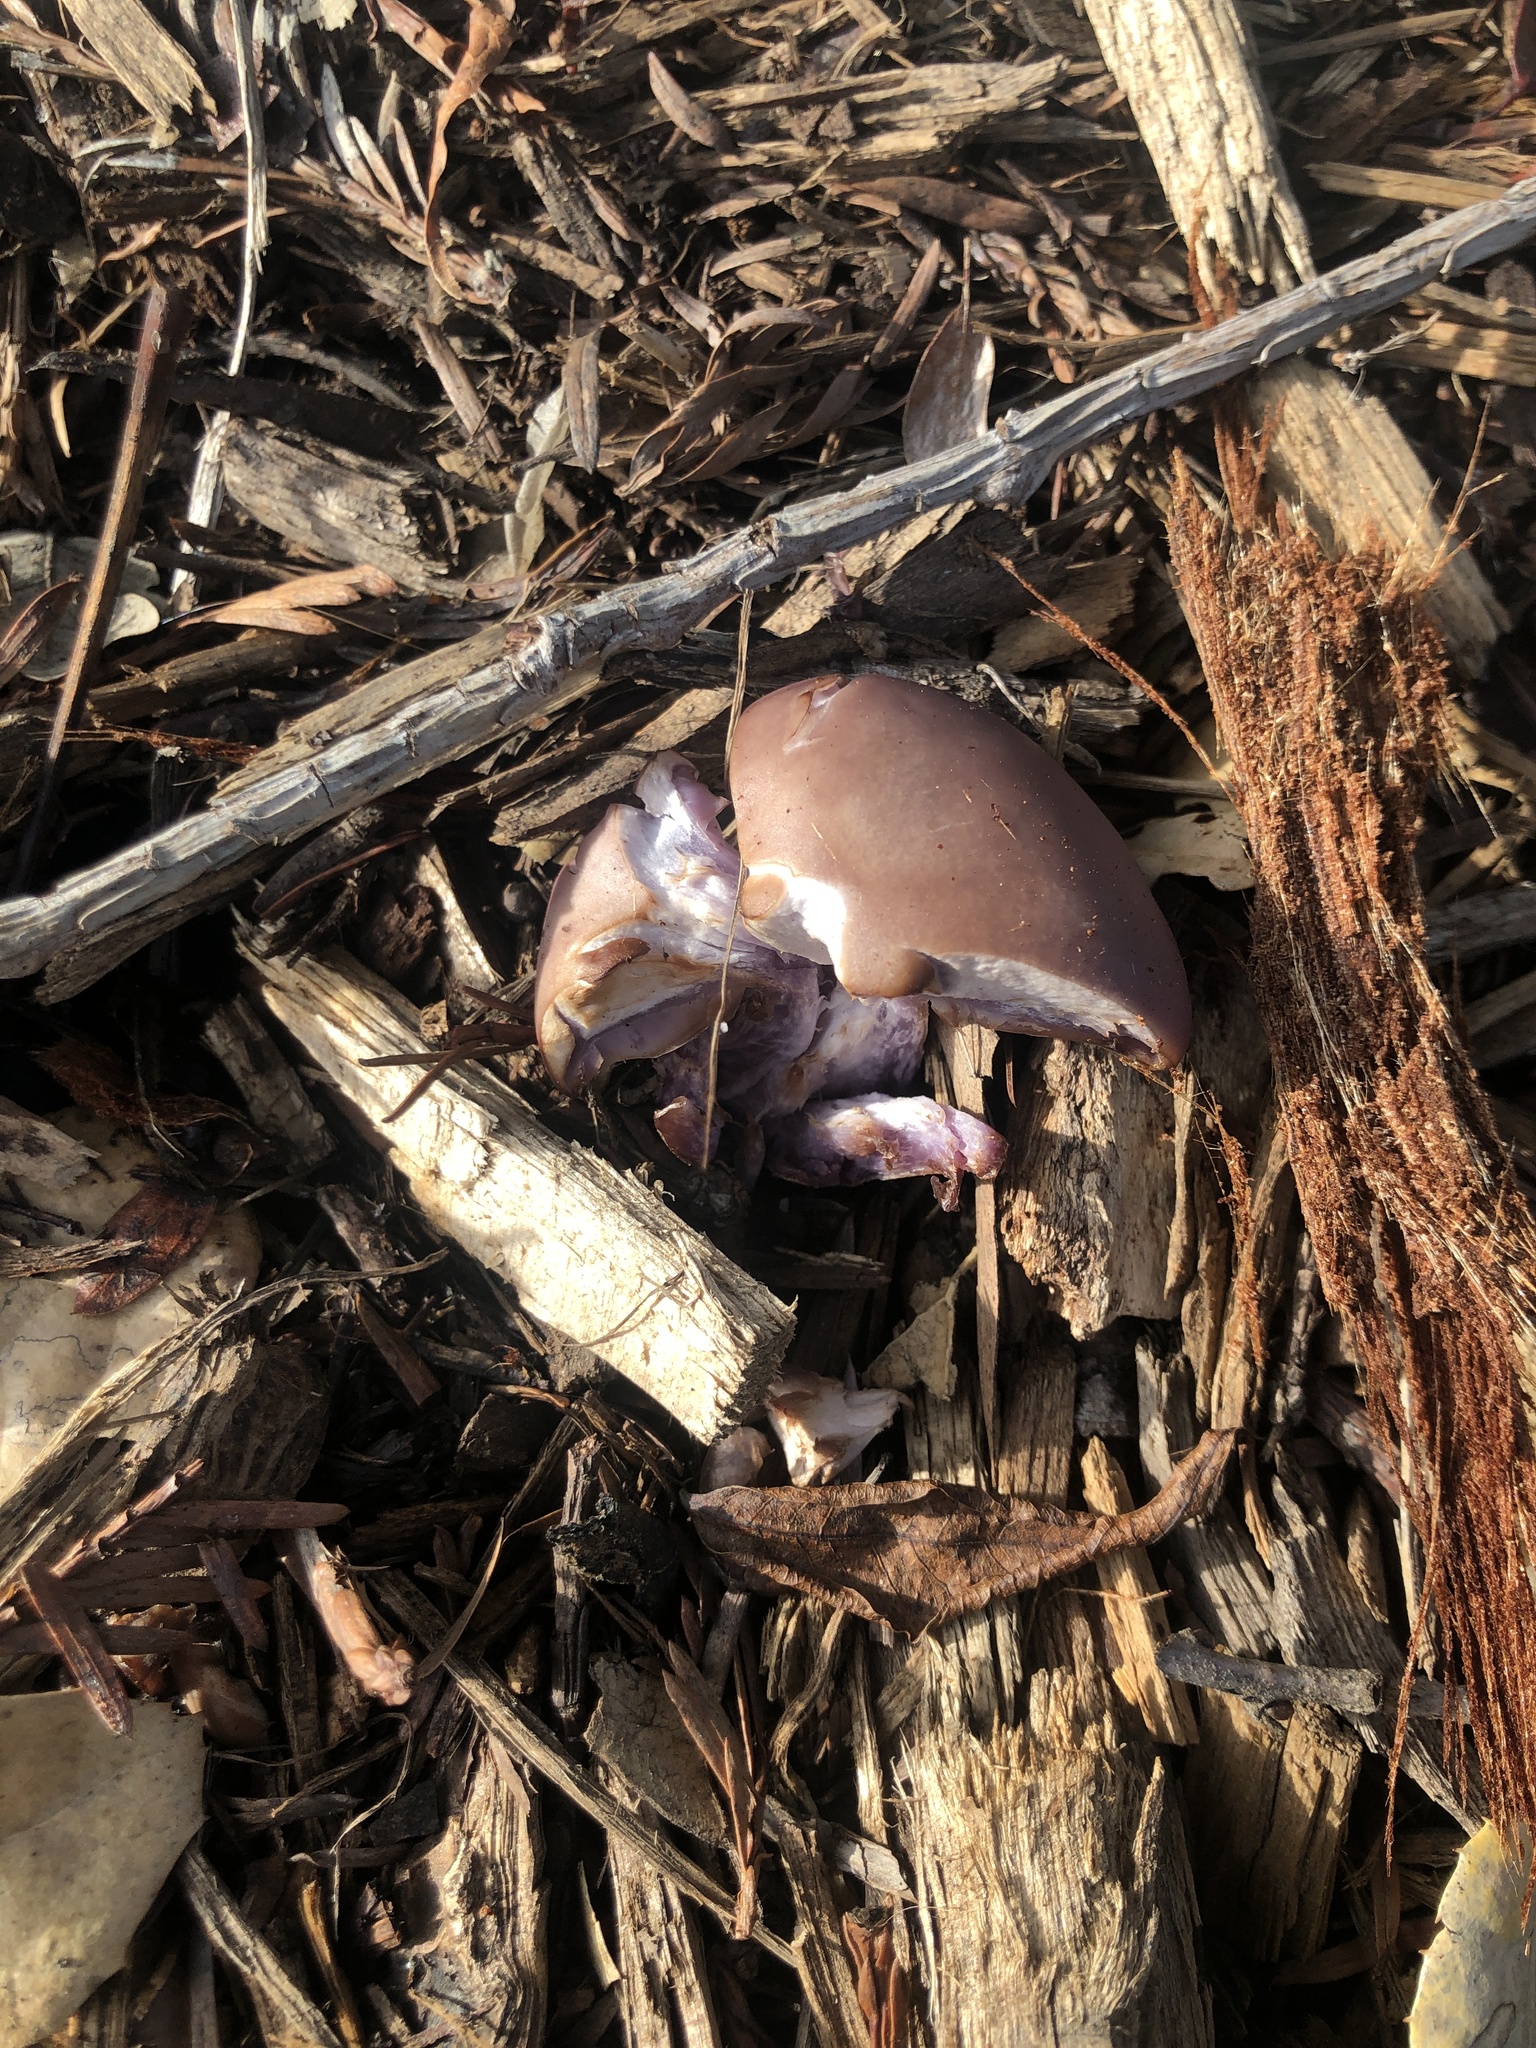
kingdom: Fungi
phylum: Basidiomycota
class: Agaricomycetes
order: Agaricales
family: Tricholomataceae
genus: Collybia
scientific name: Collybia
